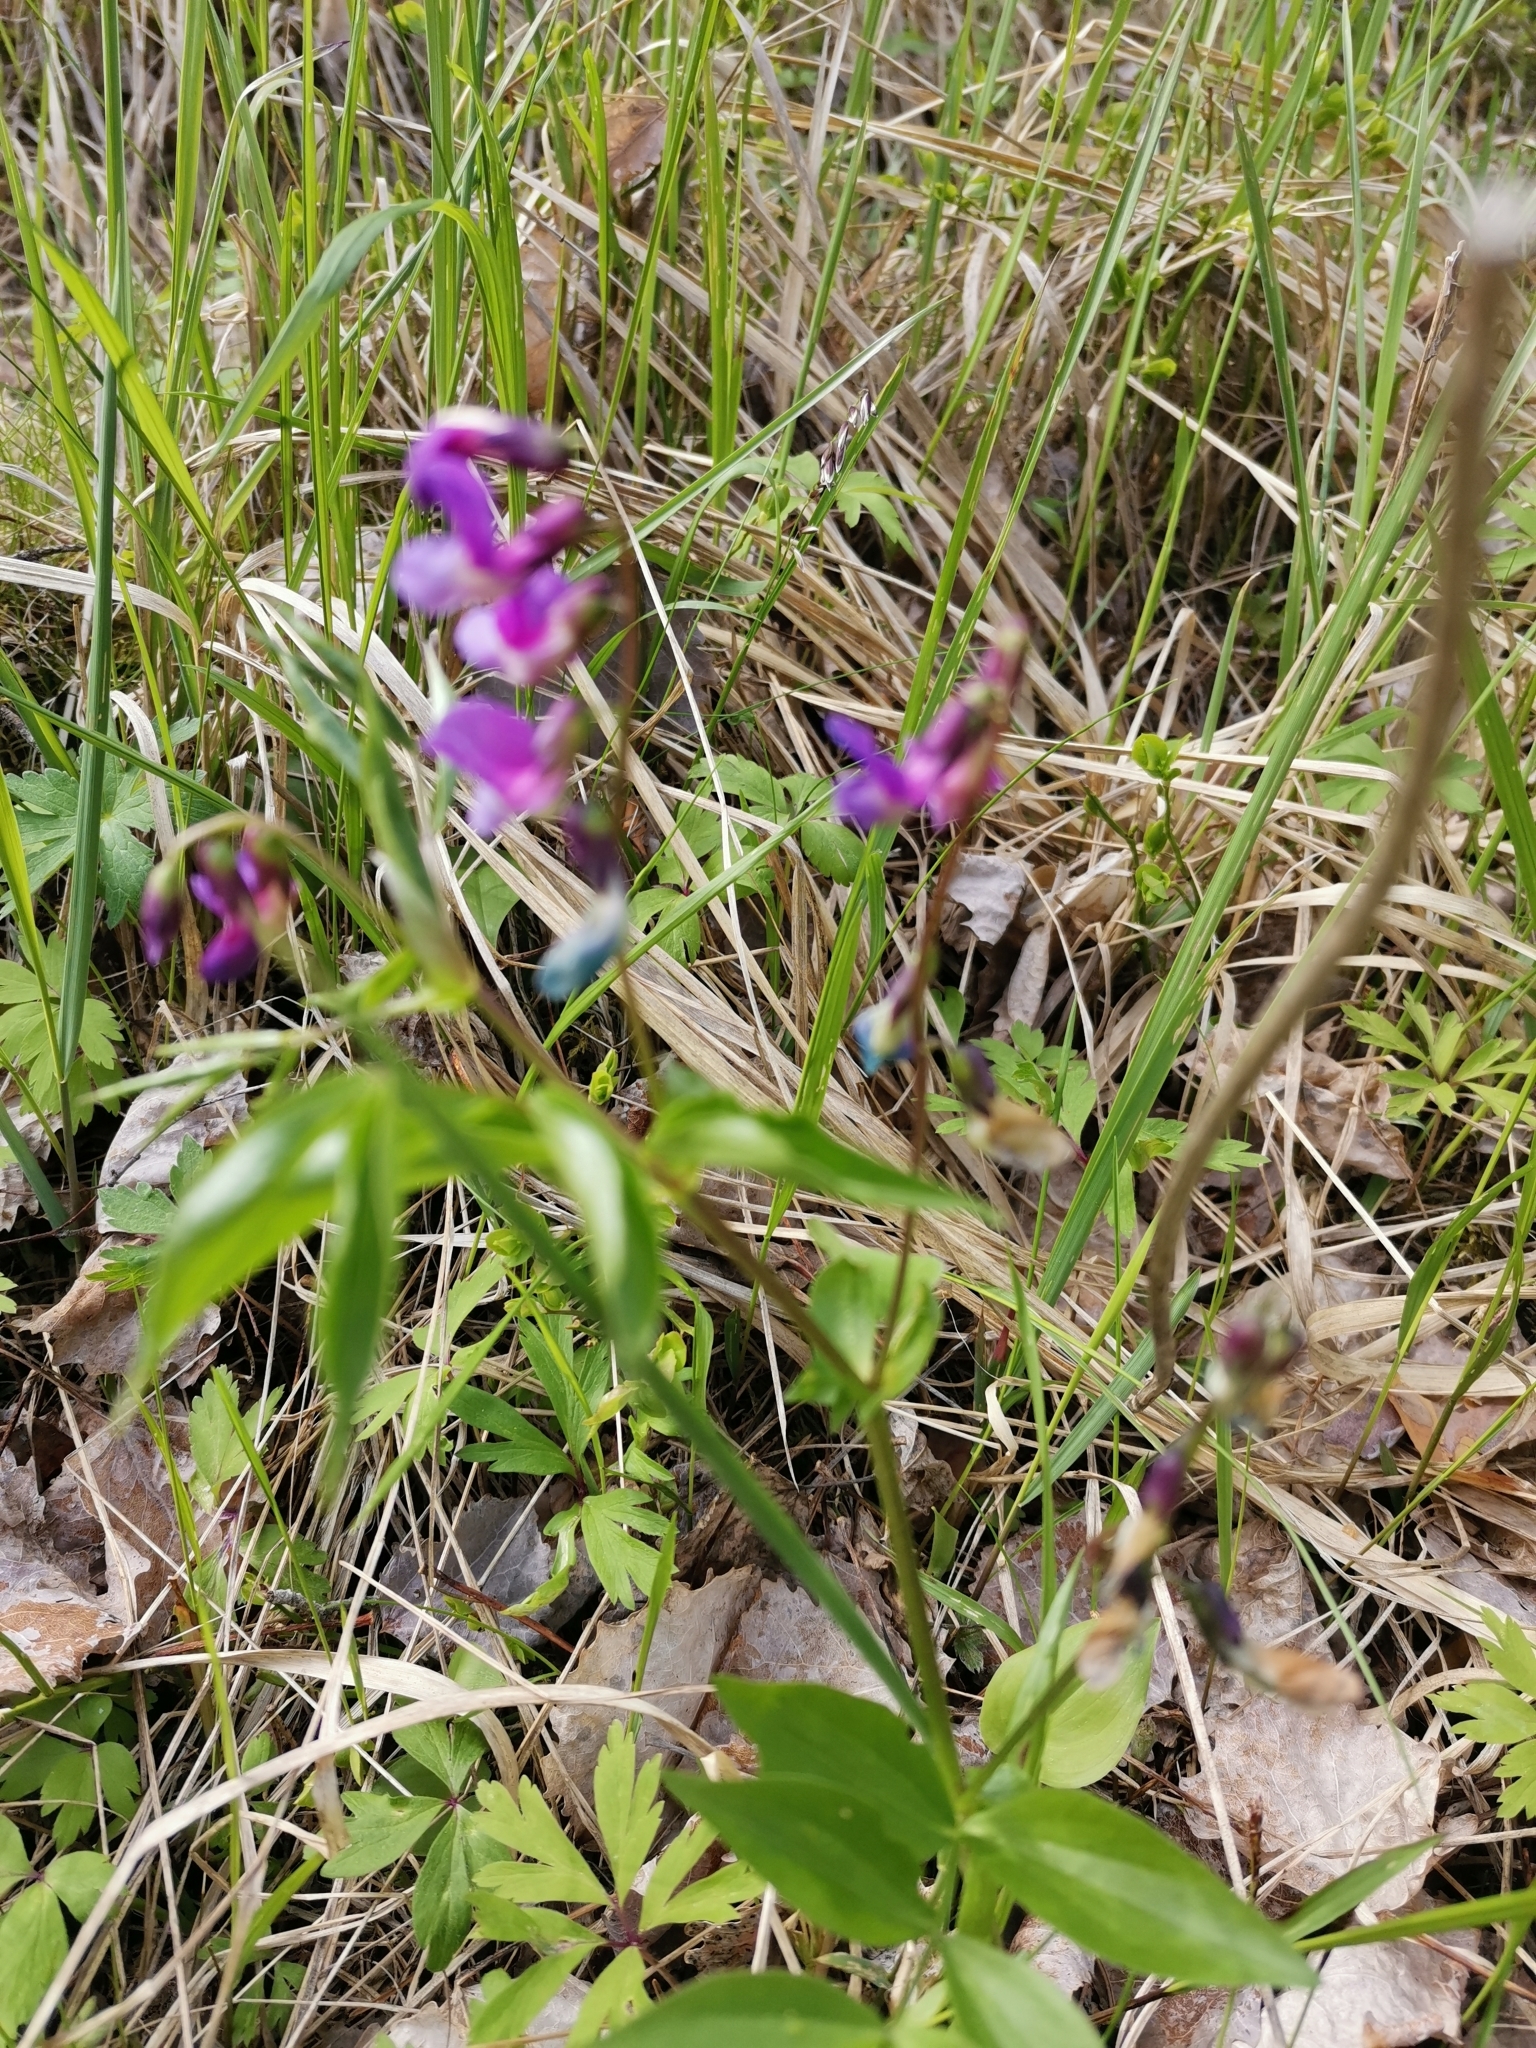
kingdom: Plantae
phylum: Tracheophyta
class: Magnoliopsida
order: Fabales
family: Fabaceae
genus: Lathyrus
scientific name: Lathyrus vernus
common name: Spring pea
